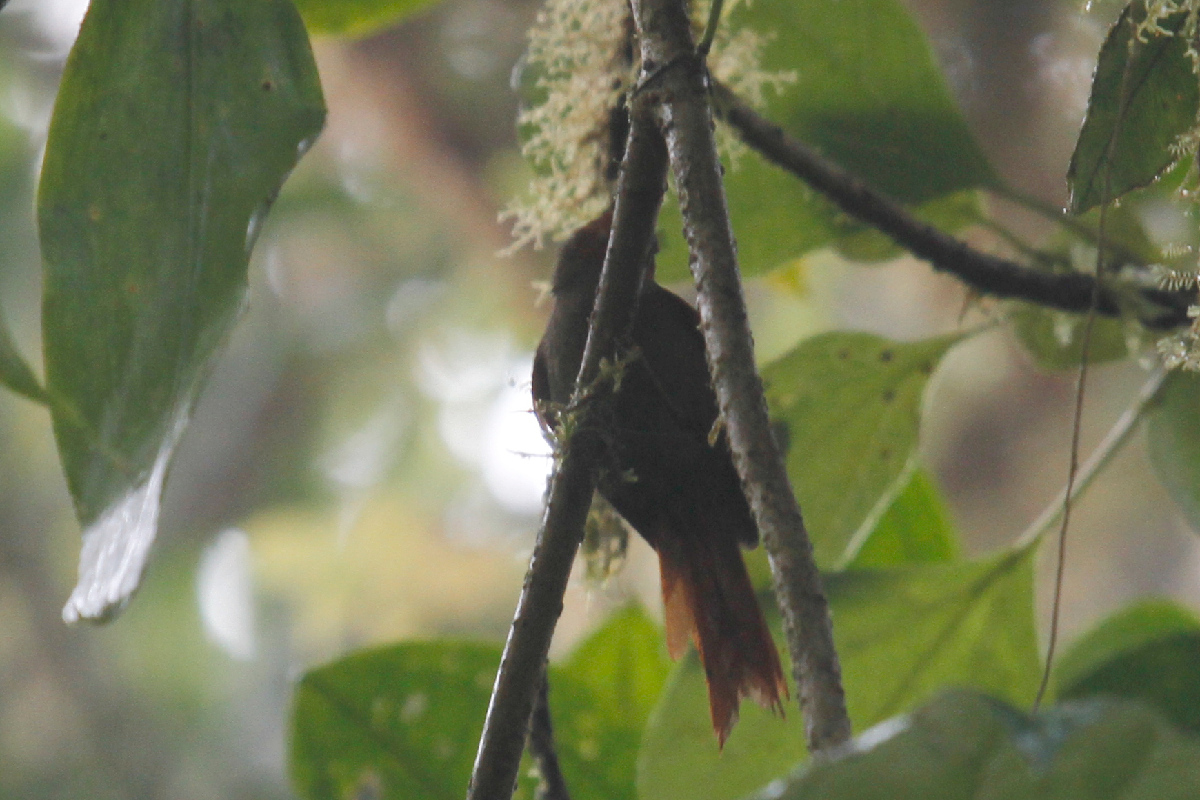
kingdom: Animalia
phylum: Chordata
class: Aves
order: Passeriformes
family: Furnariidae
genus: Cranioleuca
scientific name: Cranioleuca erythrops
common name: Red-faced spinetail
